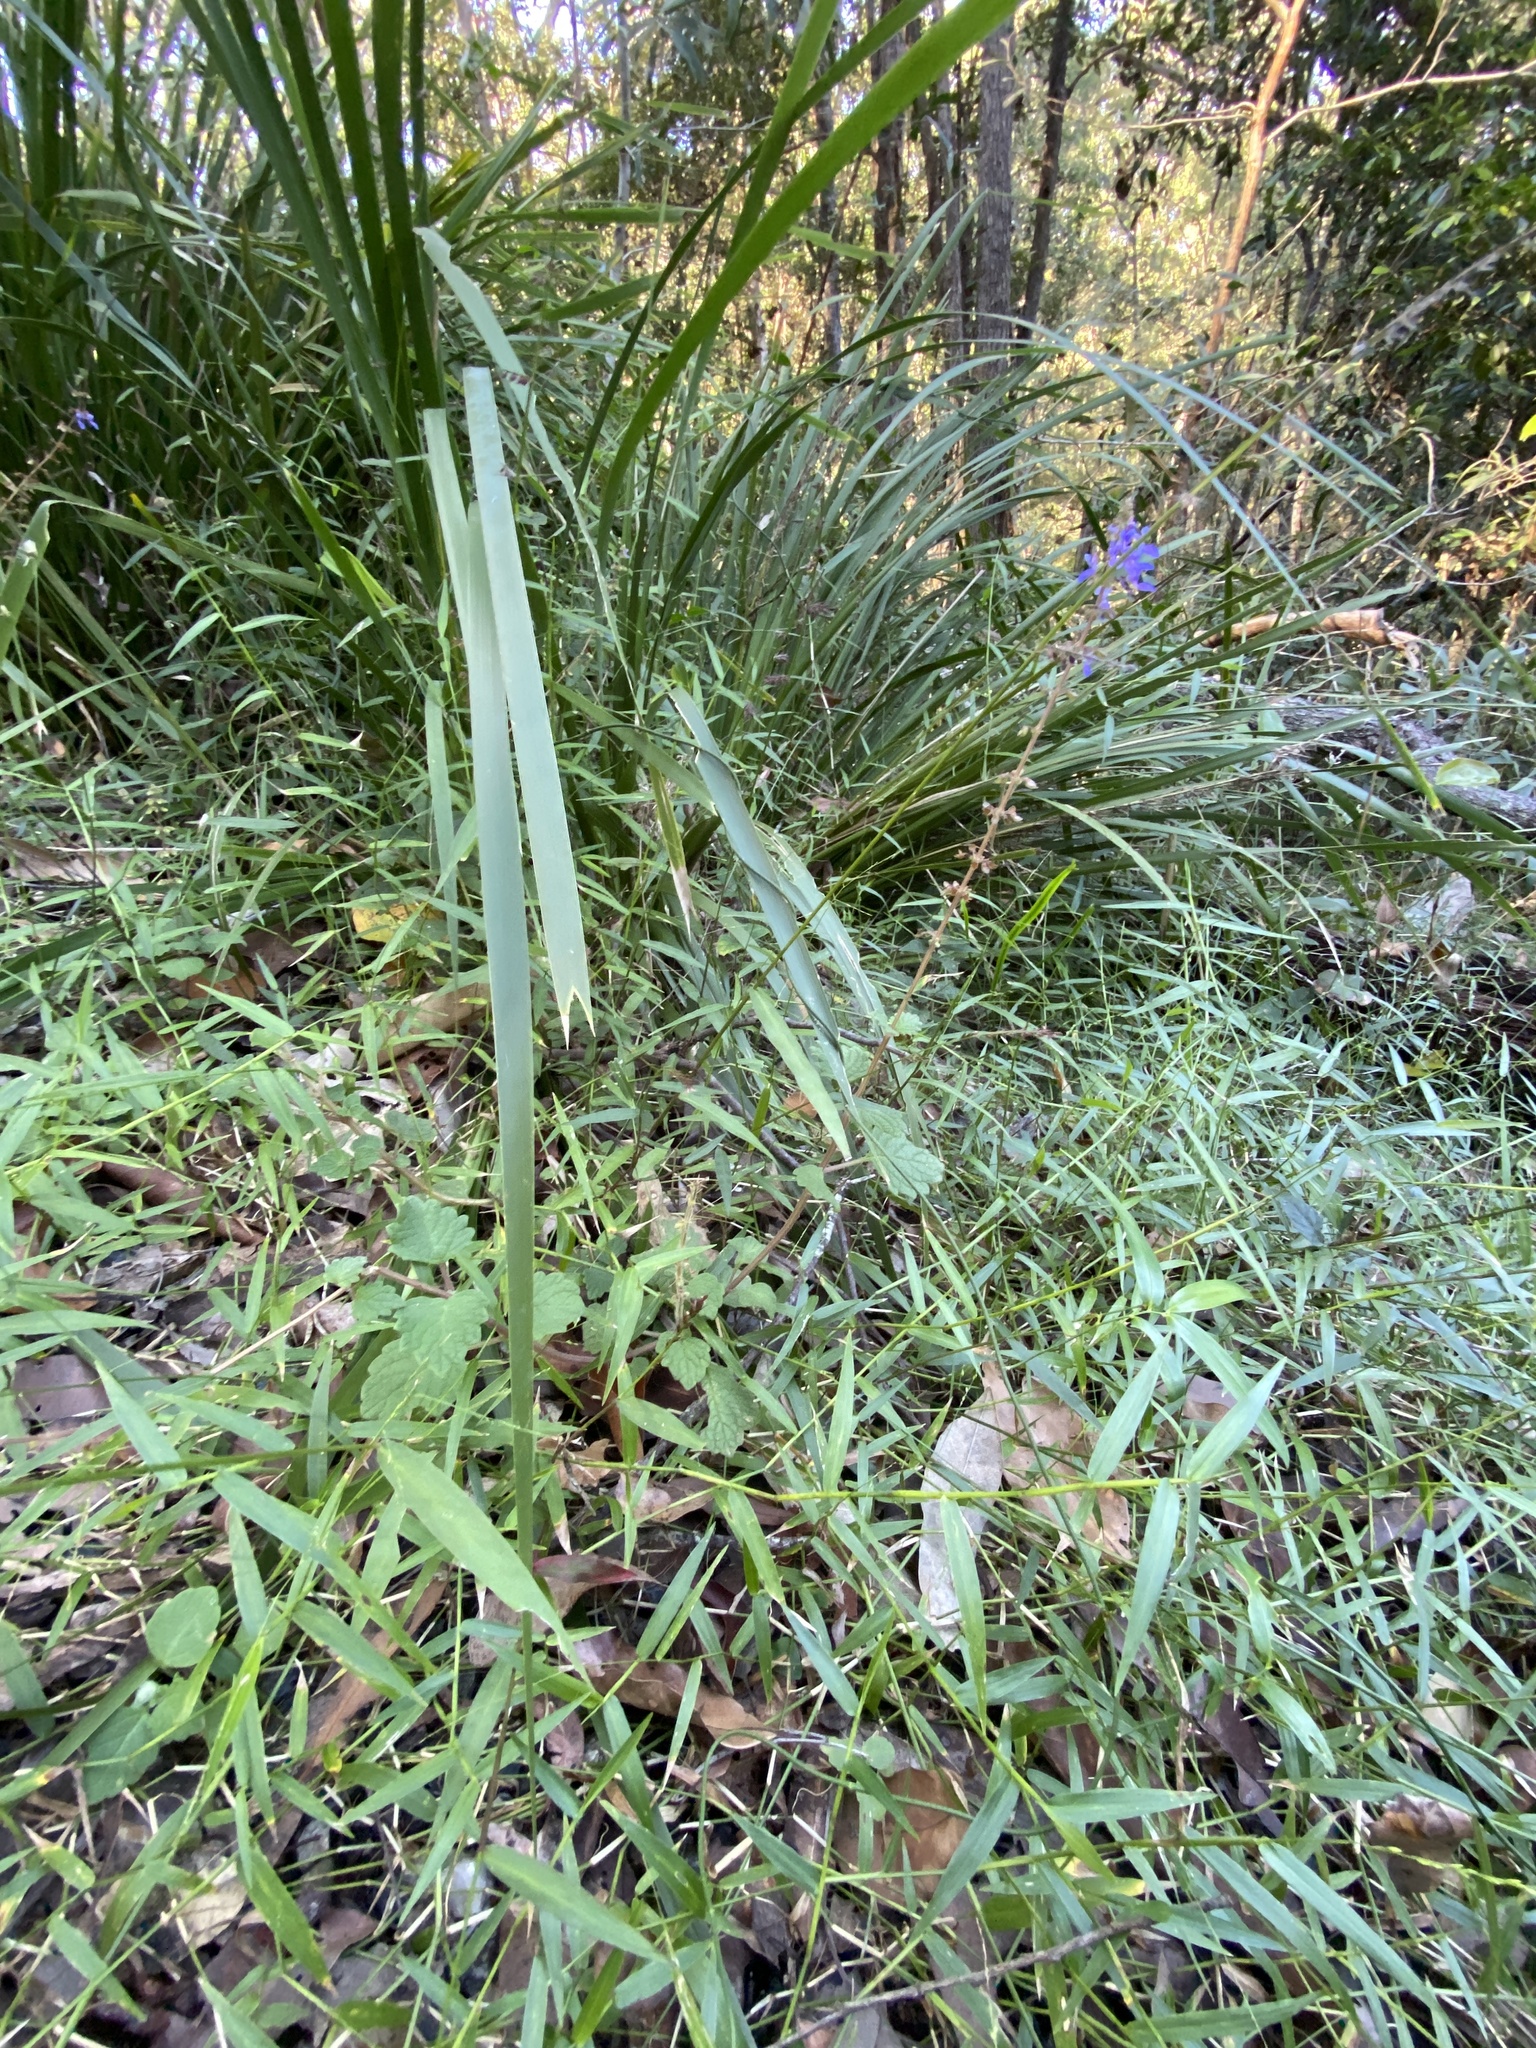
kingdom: Plantae
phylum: Tracheophyta
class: Magnoliopsida
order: Lamiales
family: Lamiaceae
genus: Coleus
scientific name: Coleus australis
